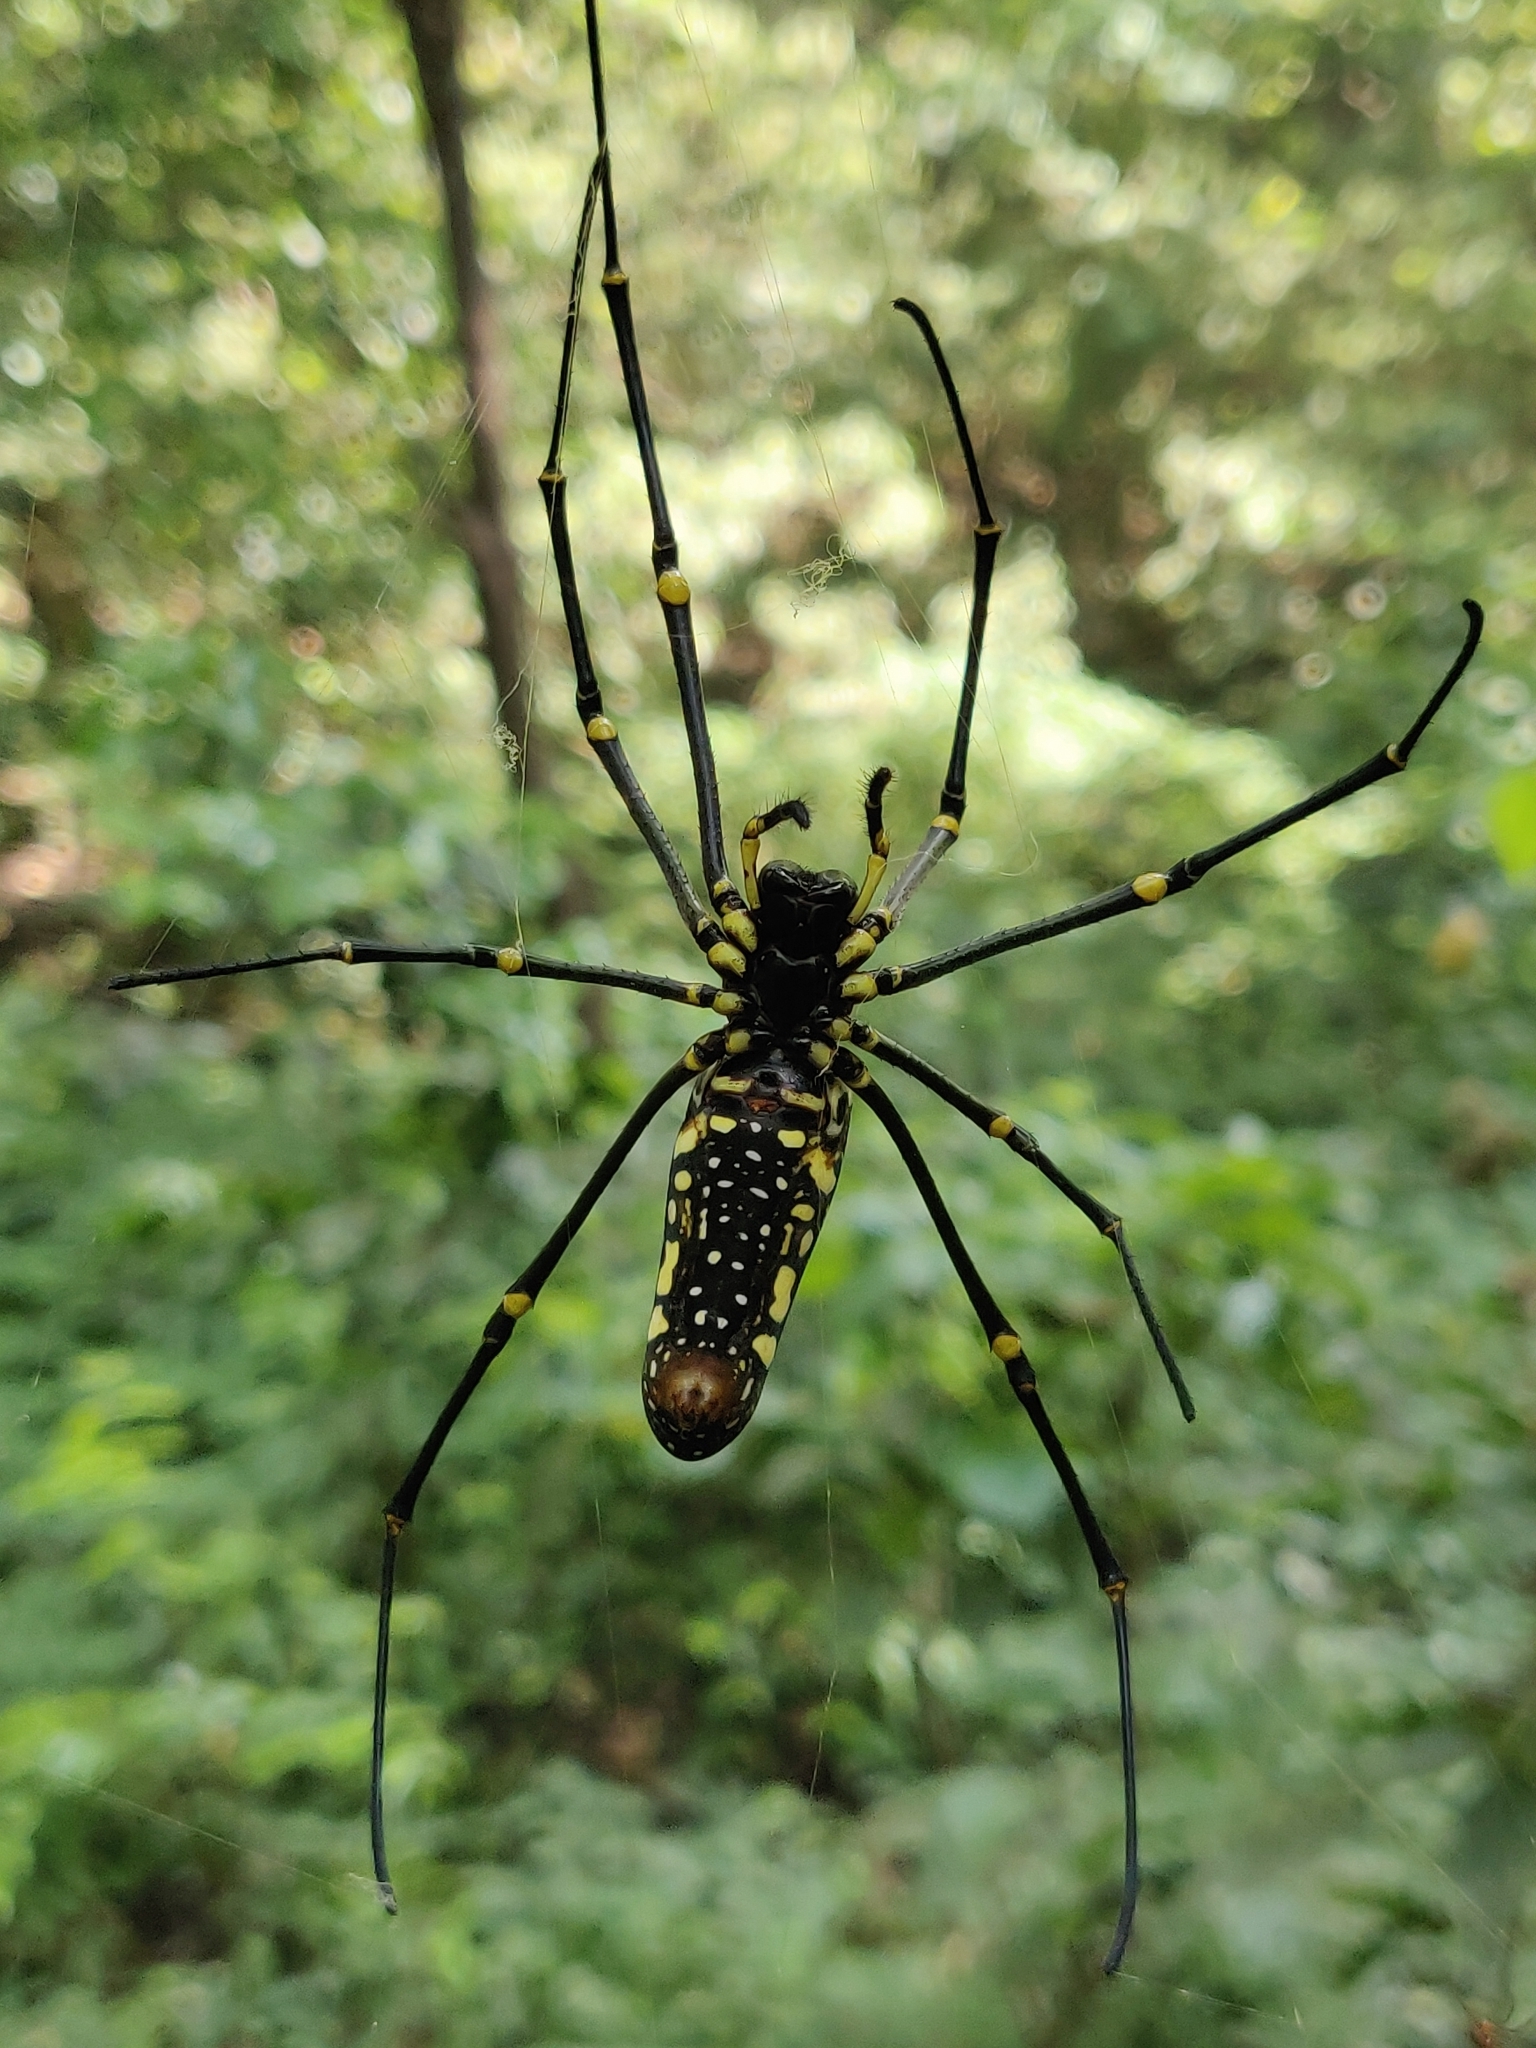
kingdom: Animalia
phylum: Arthropoda
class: Arachnida
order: Araneae
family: Araneidae
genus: Nephila
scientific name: Nephila pilipes
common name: Giant golden orb weaver
